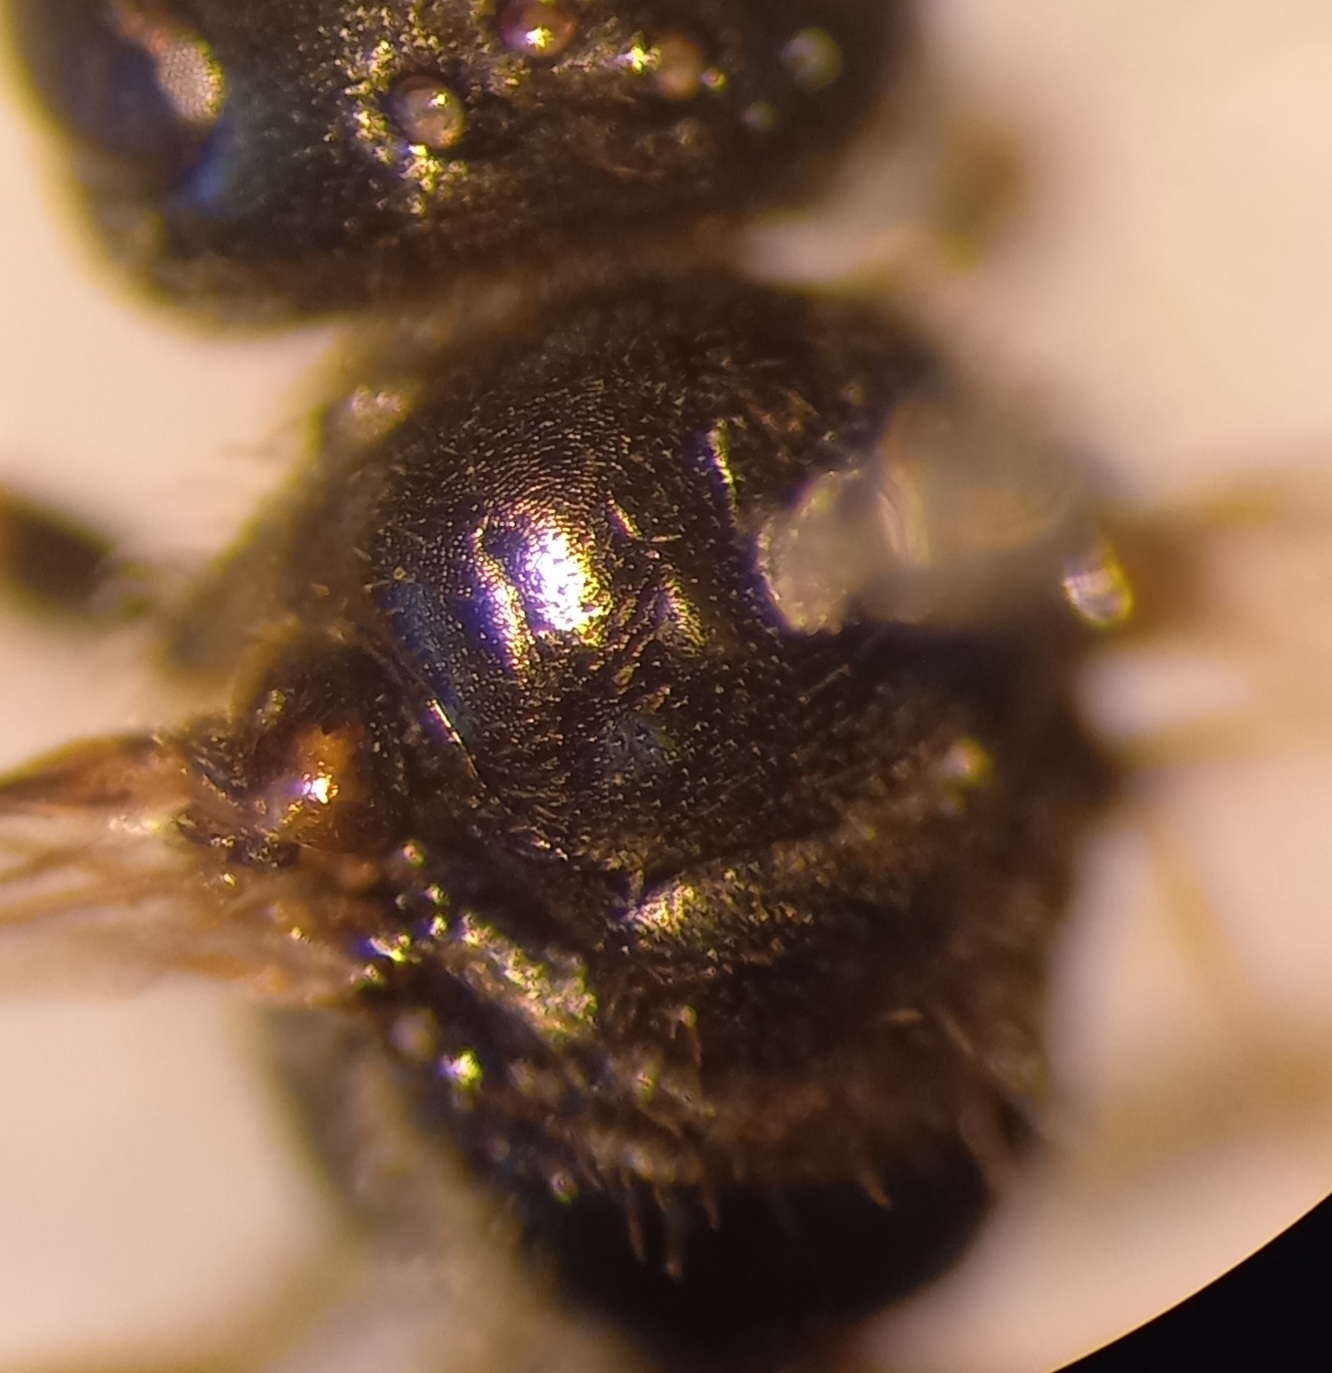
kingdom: Animalia
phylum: Arthropoda
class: Insecta
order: Hymenoptera
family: Halictidae
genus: Lasioglossum
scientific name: Lasioglossum politum
